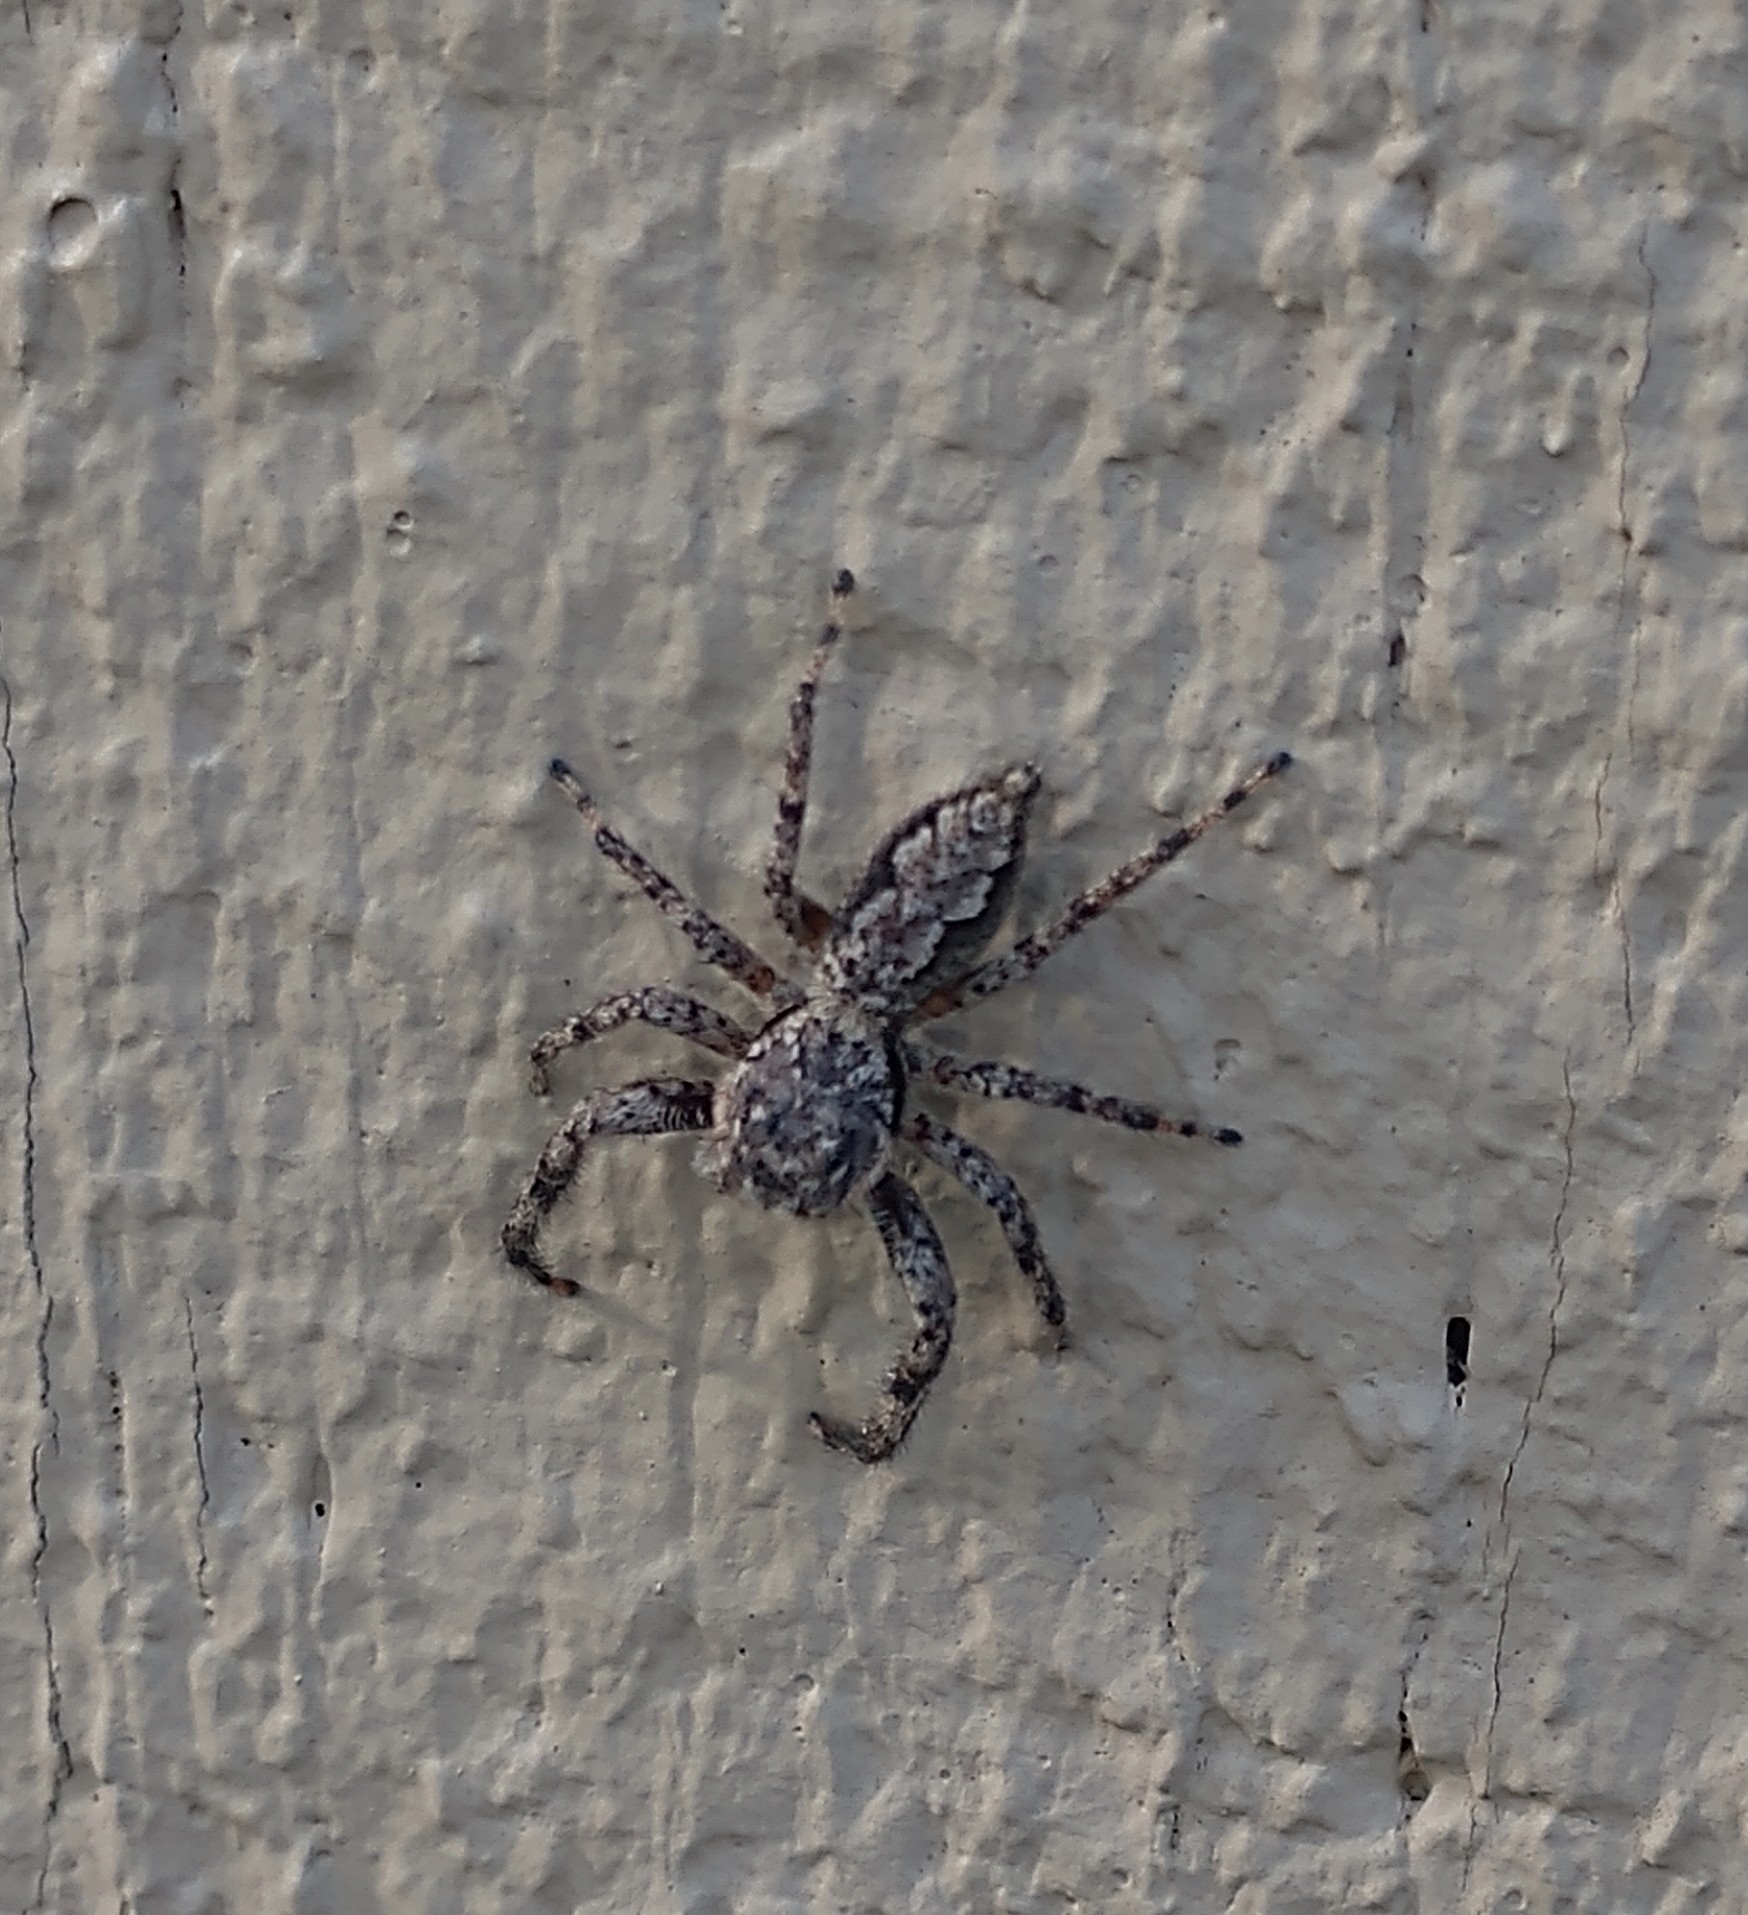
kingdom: Animalia
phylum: Arthropoda
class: Arachnida
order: Araneae
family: Salticidae
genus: Platycryptus
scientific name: Platycryptus undatus
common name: Tan jumping spider
